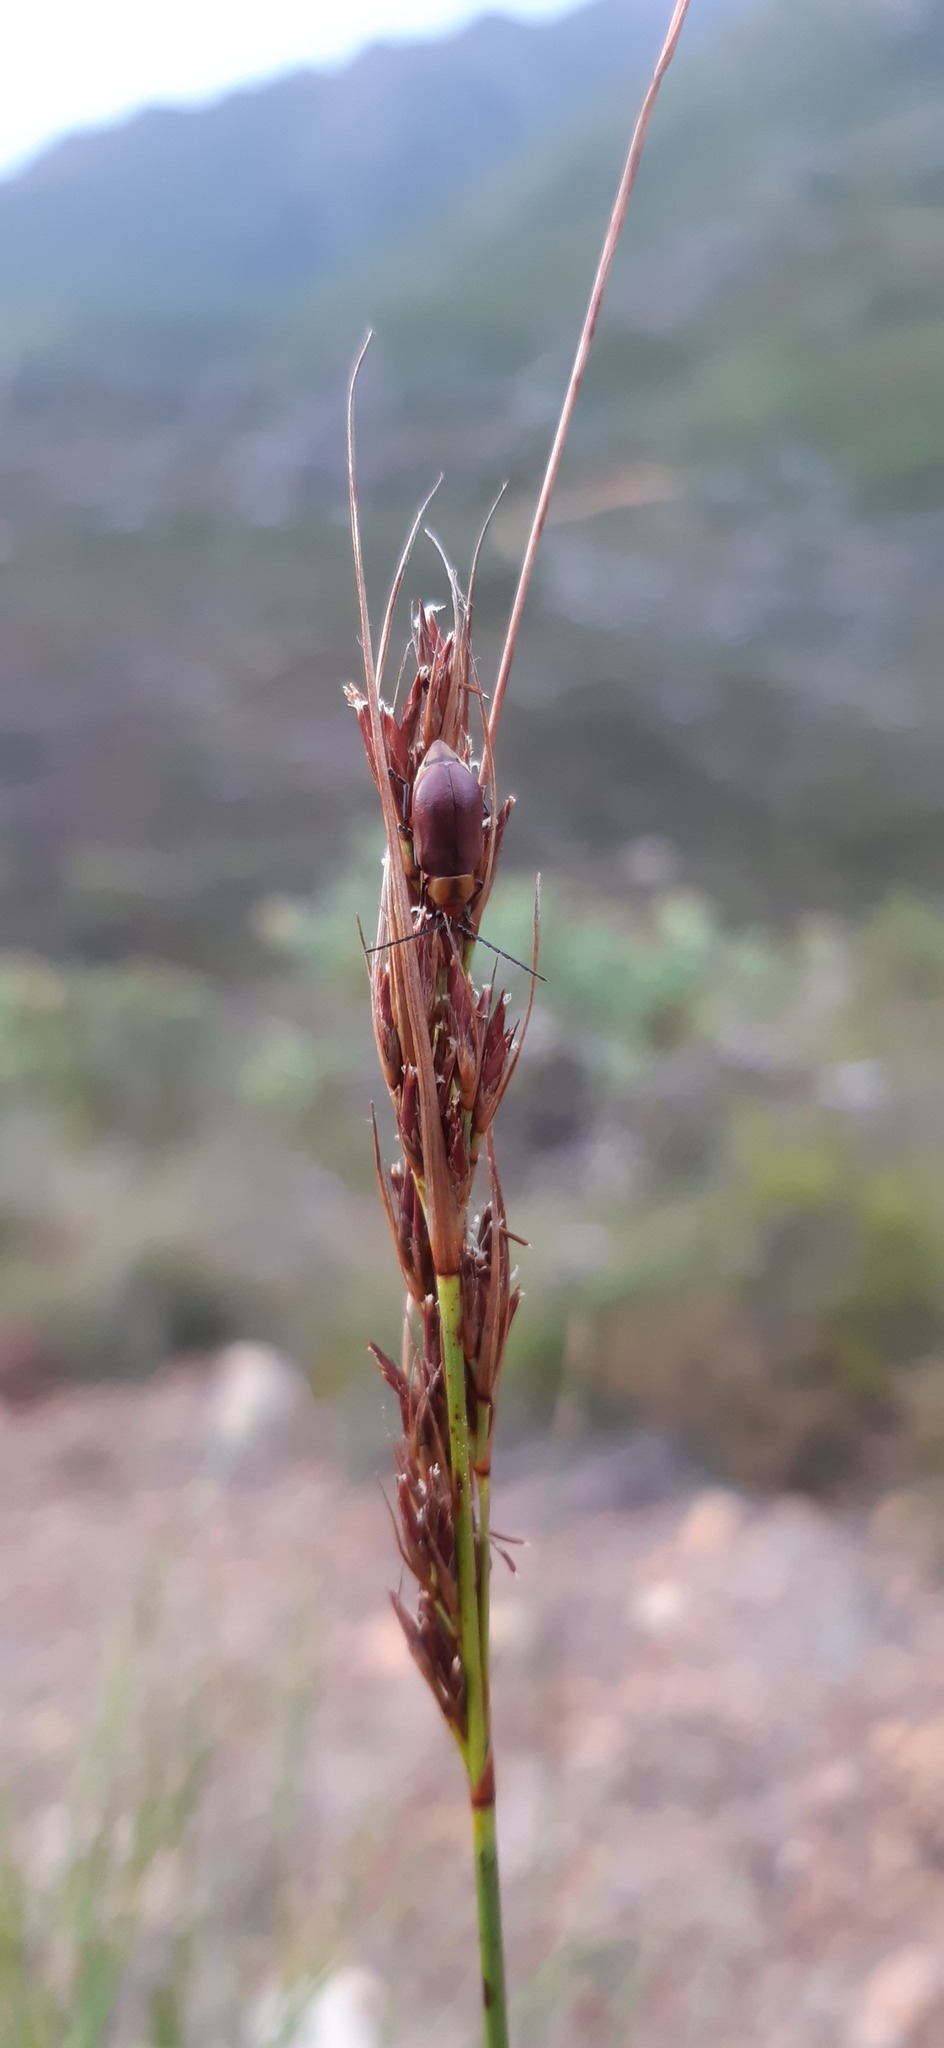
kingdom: Plantae
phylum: Tracheophyta
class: Liliopsida
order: Poales
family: Cyperaceae
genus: Schoenus
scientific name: Schoenus crassus
